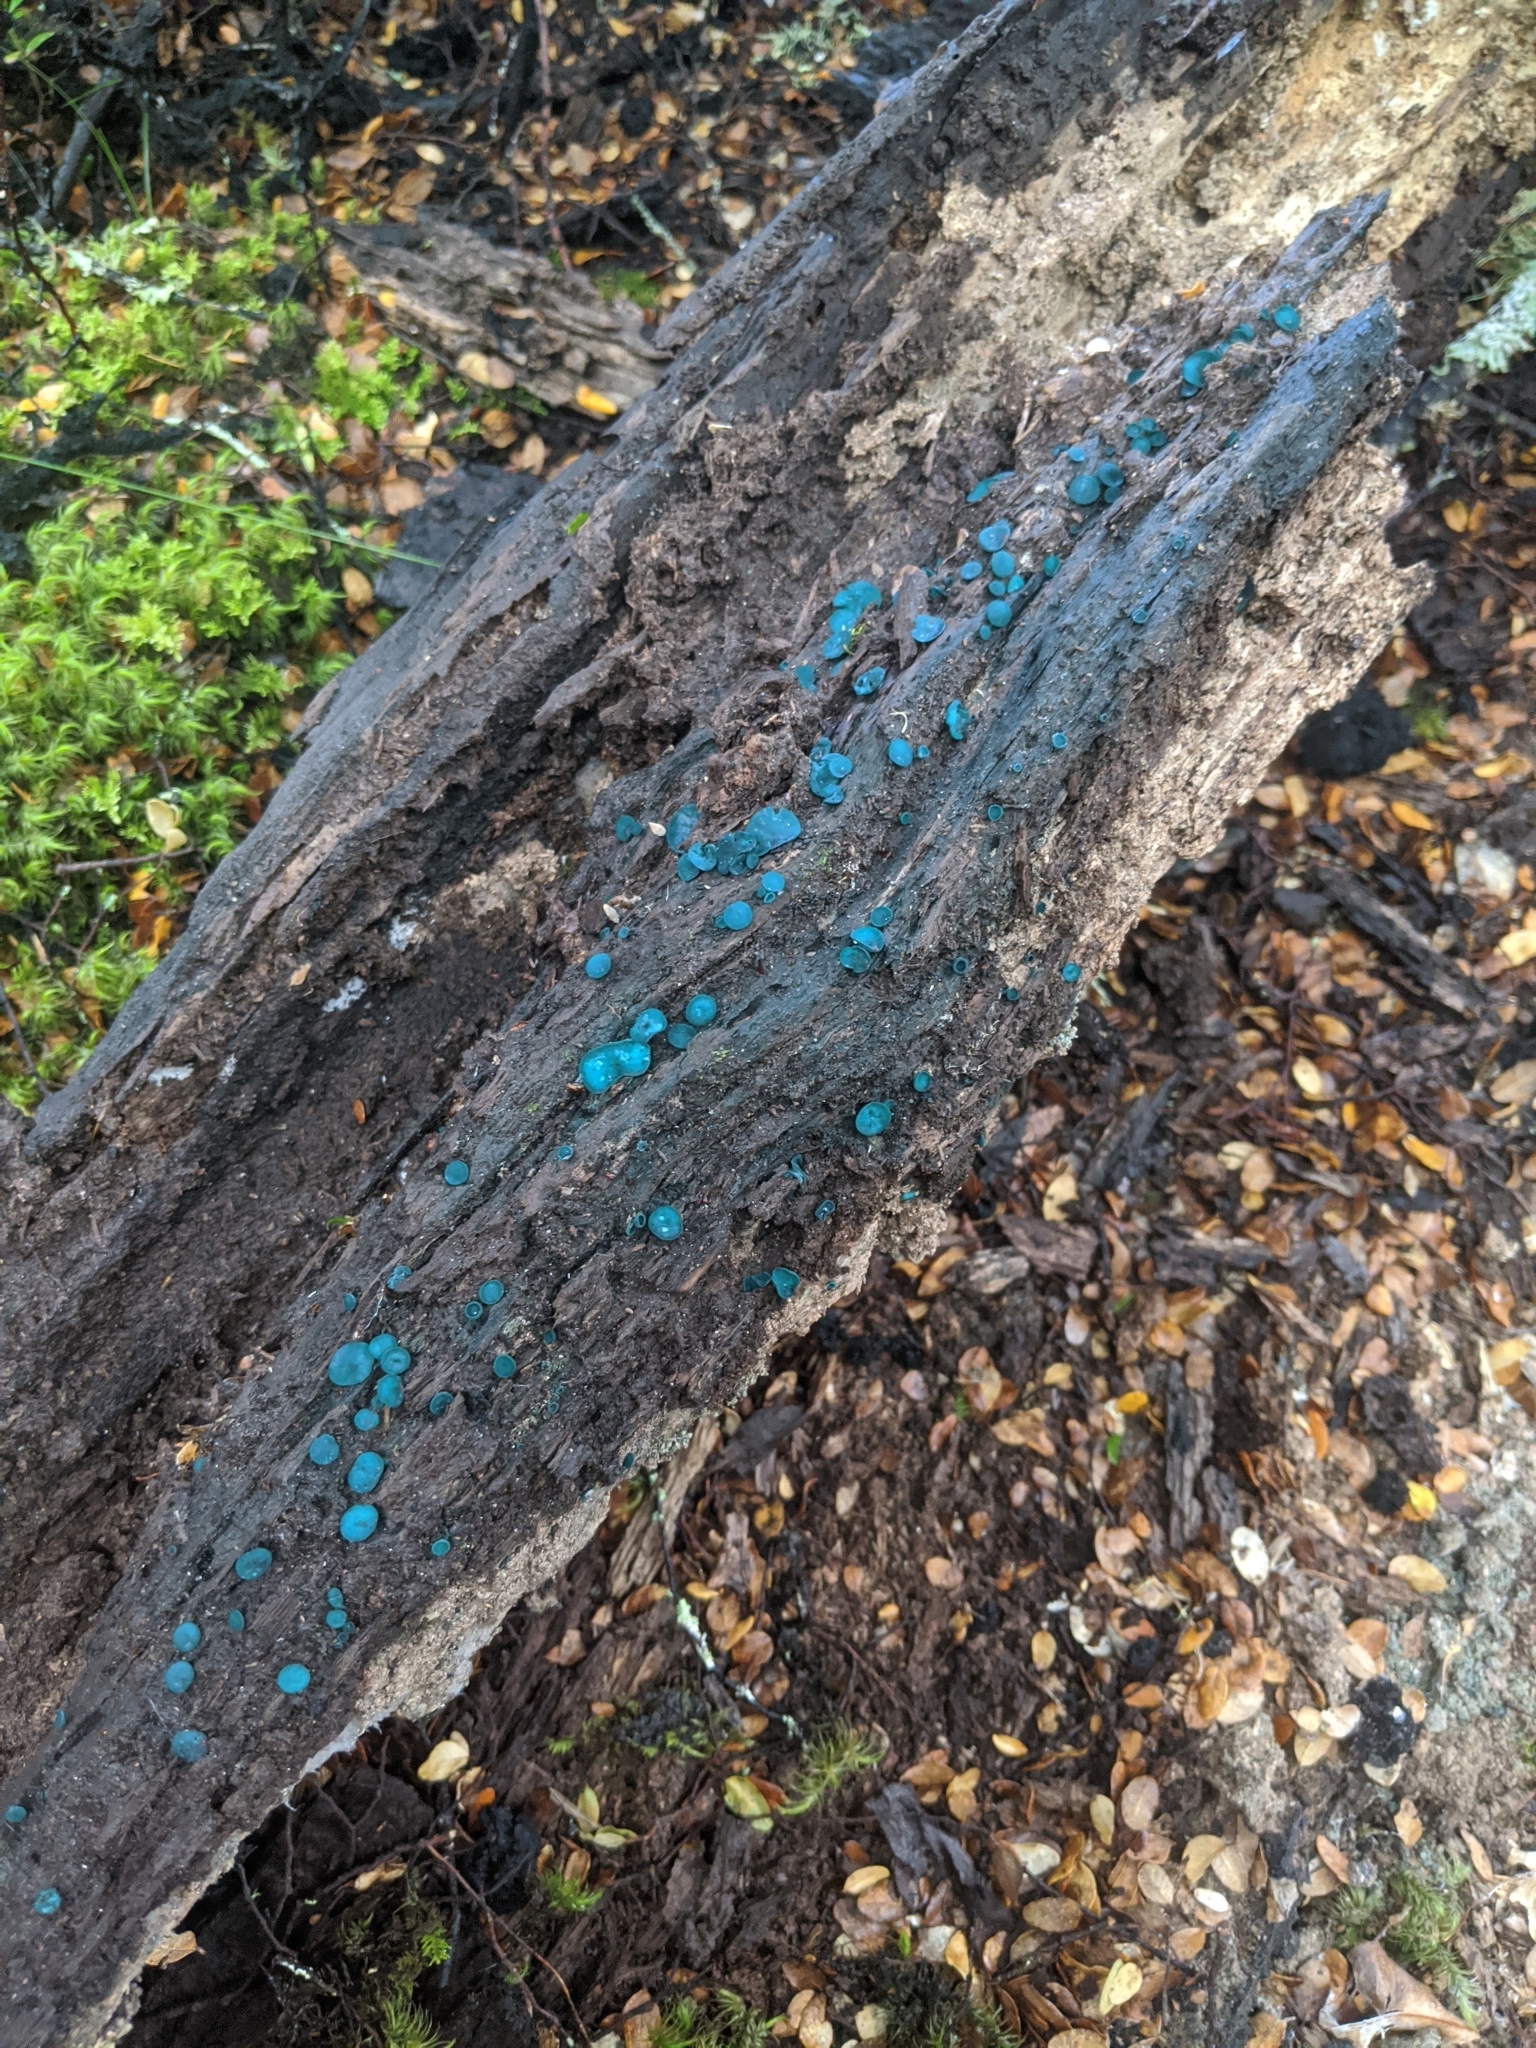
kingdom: Fungi
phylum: Ascomycota
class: Leotiomycetes
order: Helotiales
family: Chlorociboriaceae
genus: Chlorociboria
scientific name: Chlorociboria
